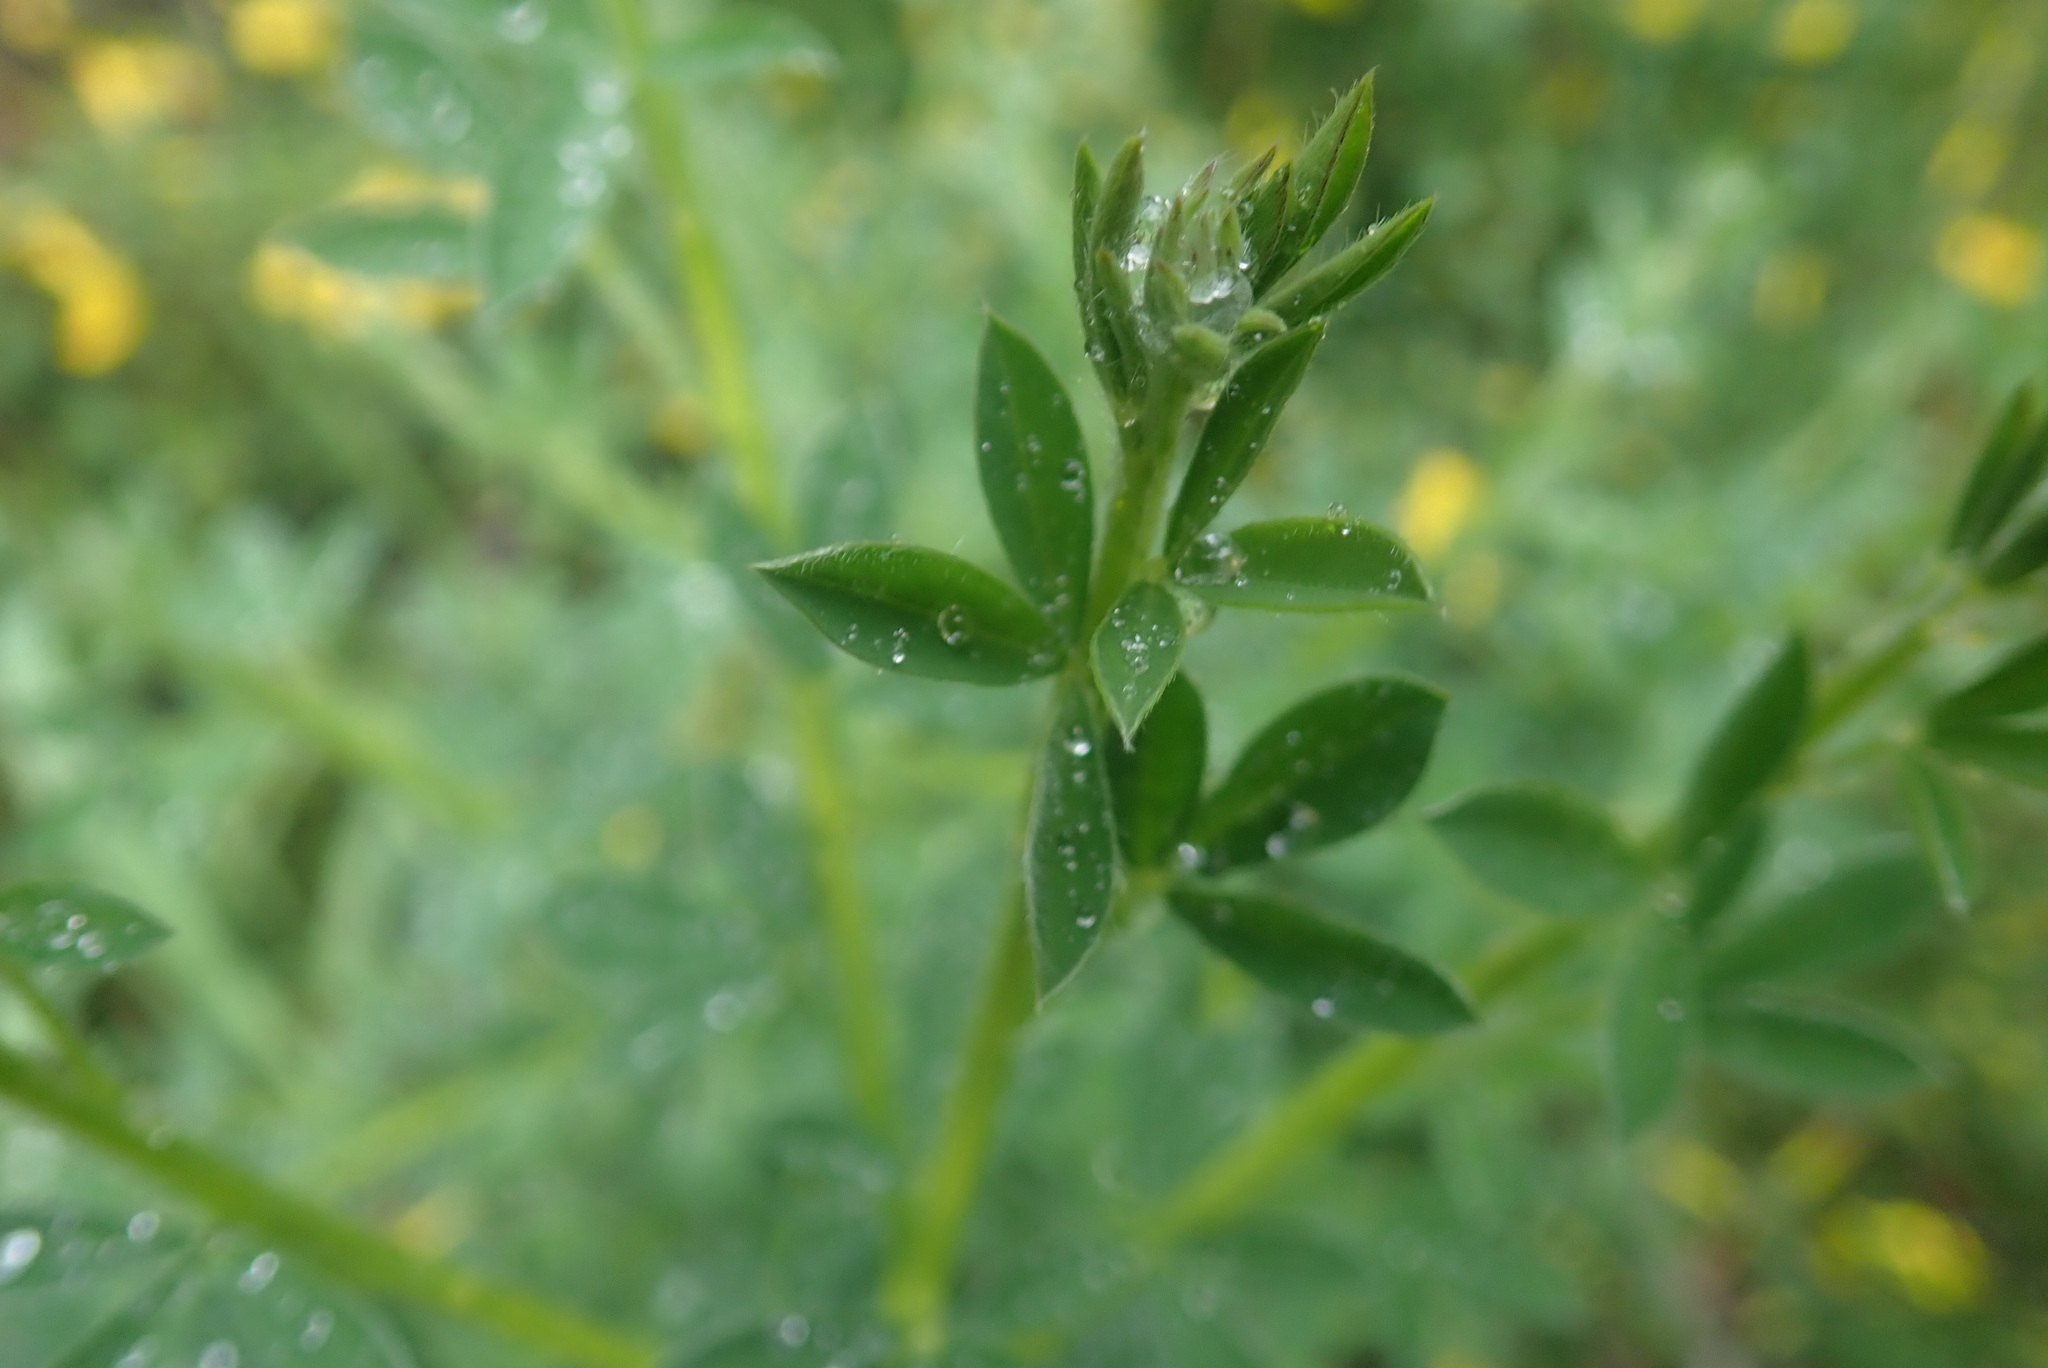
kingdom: Plantae
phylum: Tracheophyta
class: Magnoliopsida
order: Fabales
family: Fabaceae
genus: Cytisus
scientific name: Cytisus scoparius
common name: Scotch broom
